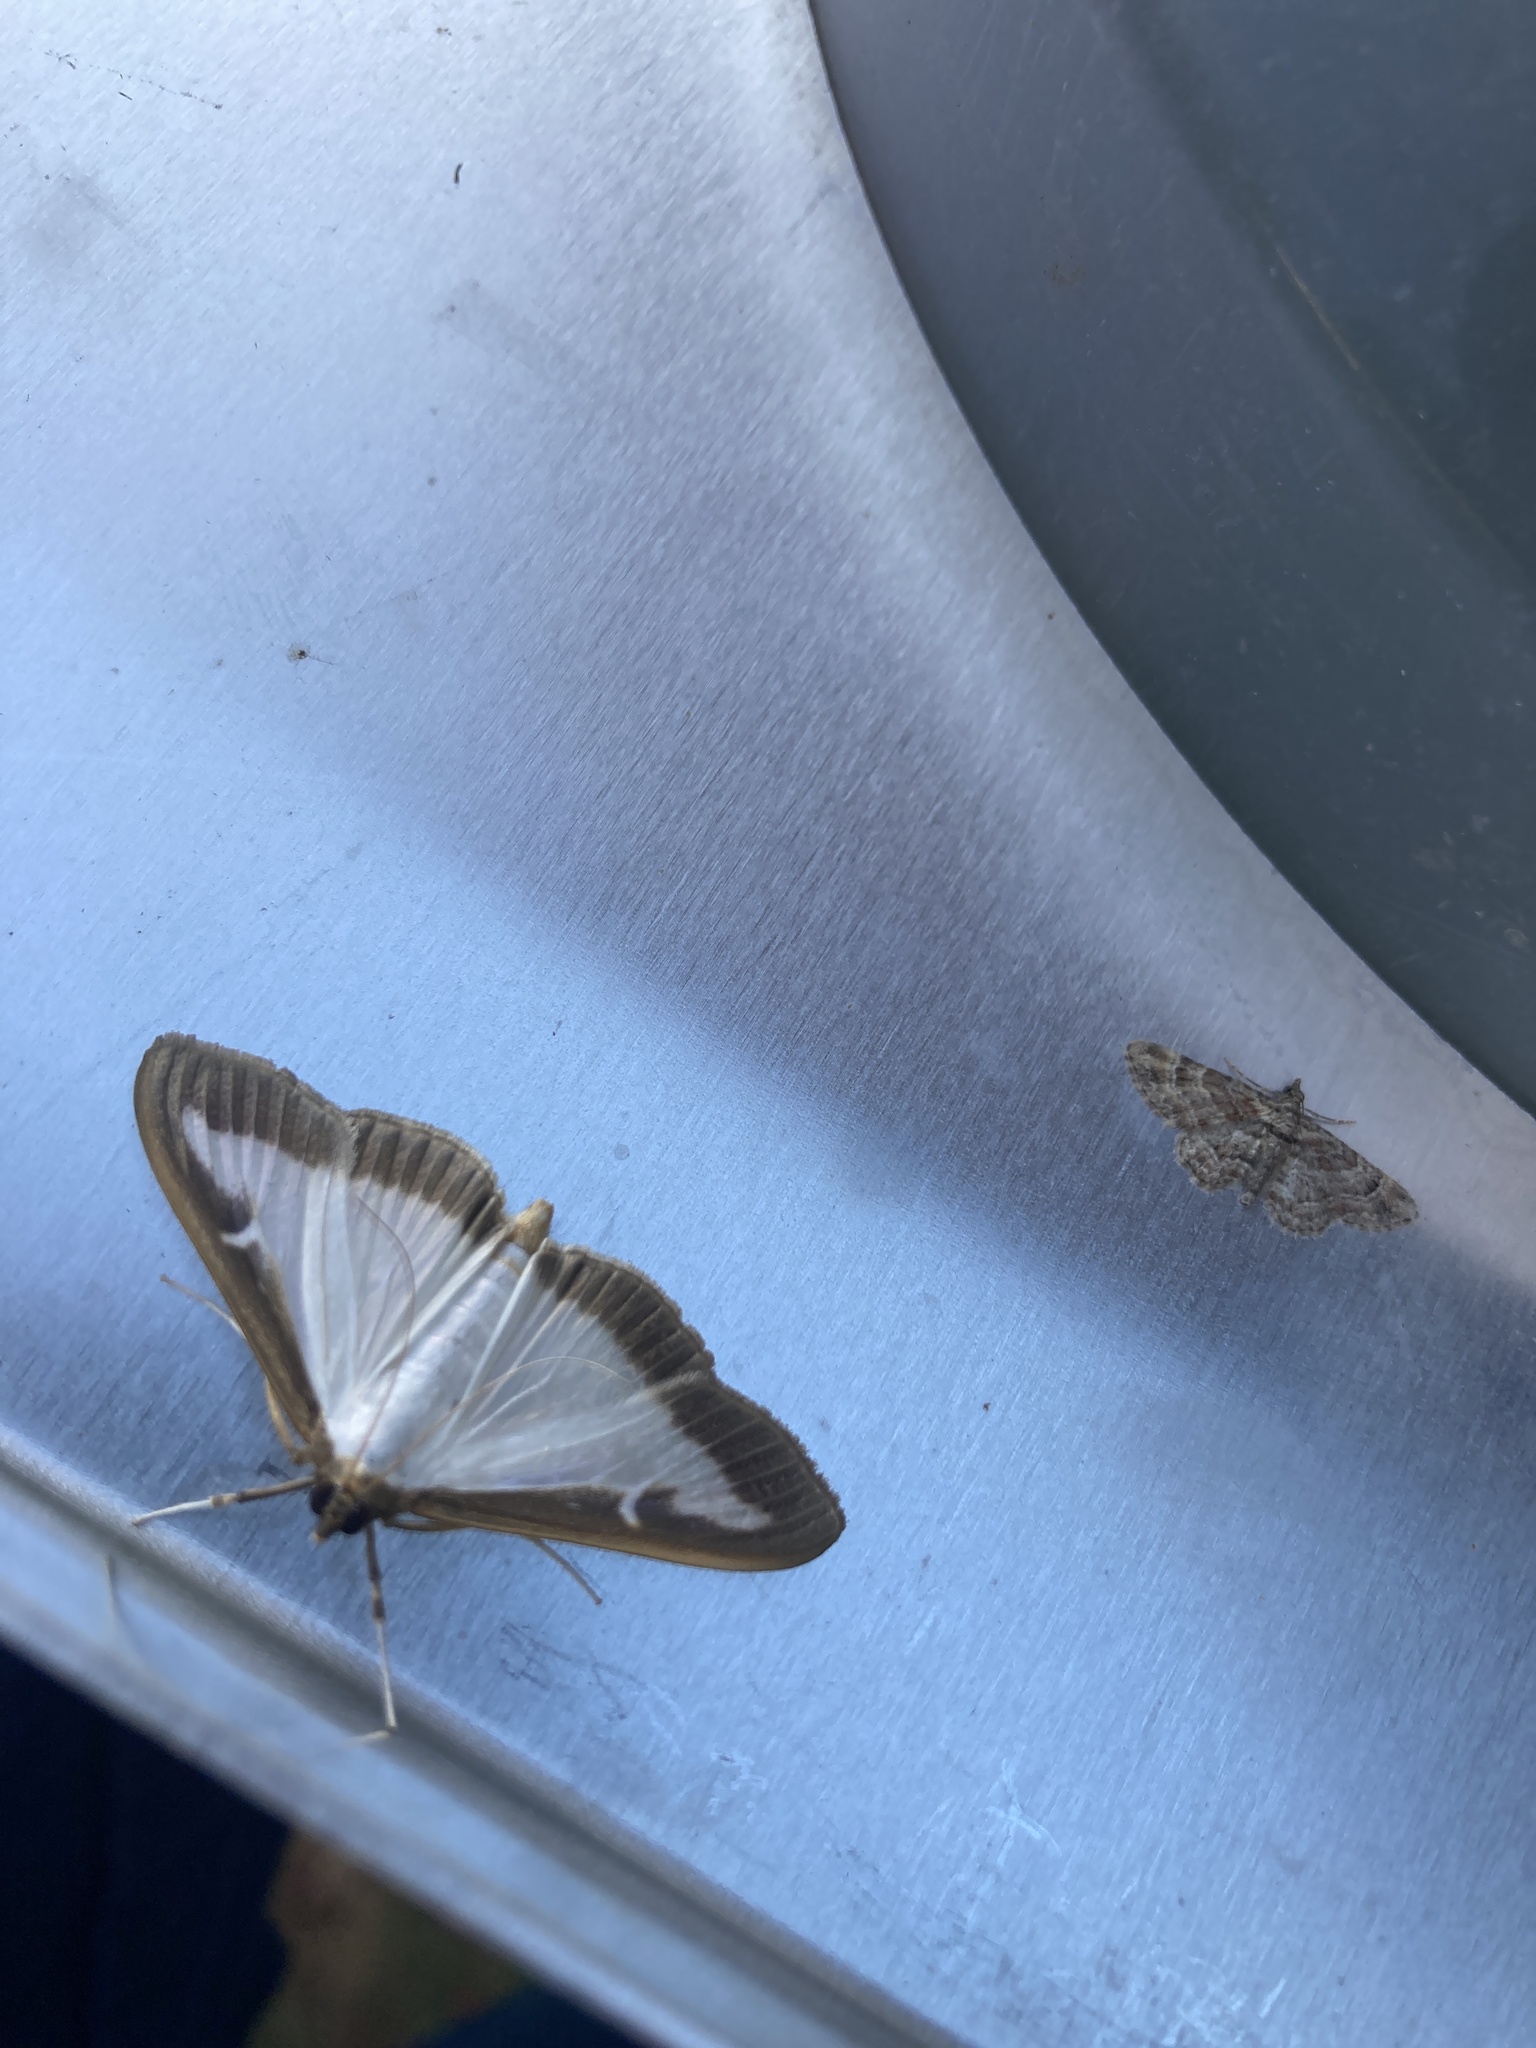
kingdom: Animalia
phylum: Arthropoda
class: Insecta
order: Lepidoptera
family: Crambidae
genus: Cydalima
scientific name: Cydalima perspectalis
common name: Box tree moth
